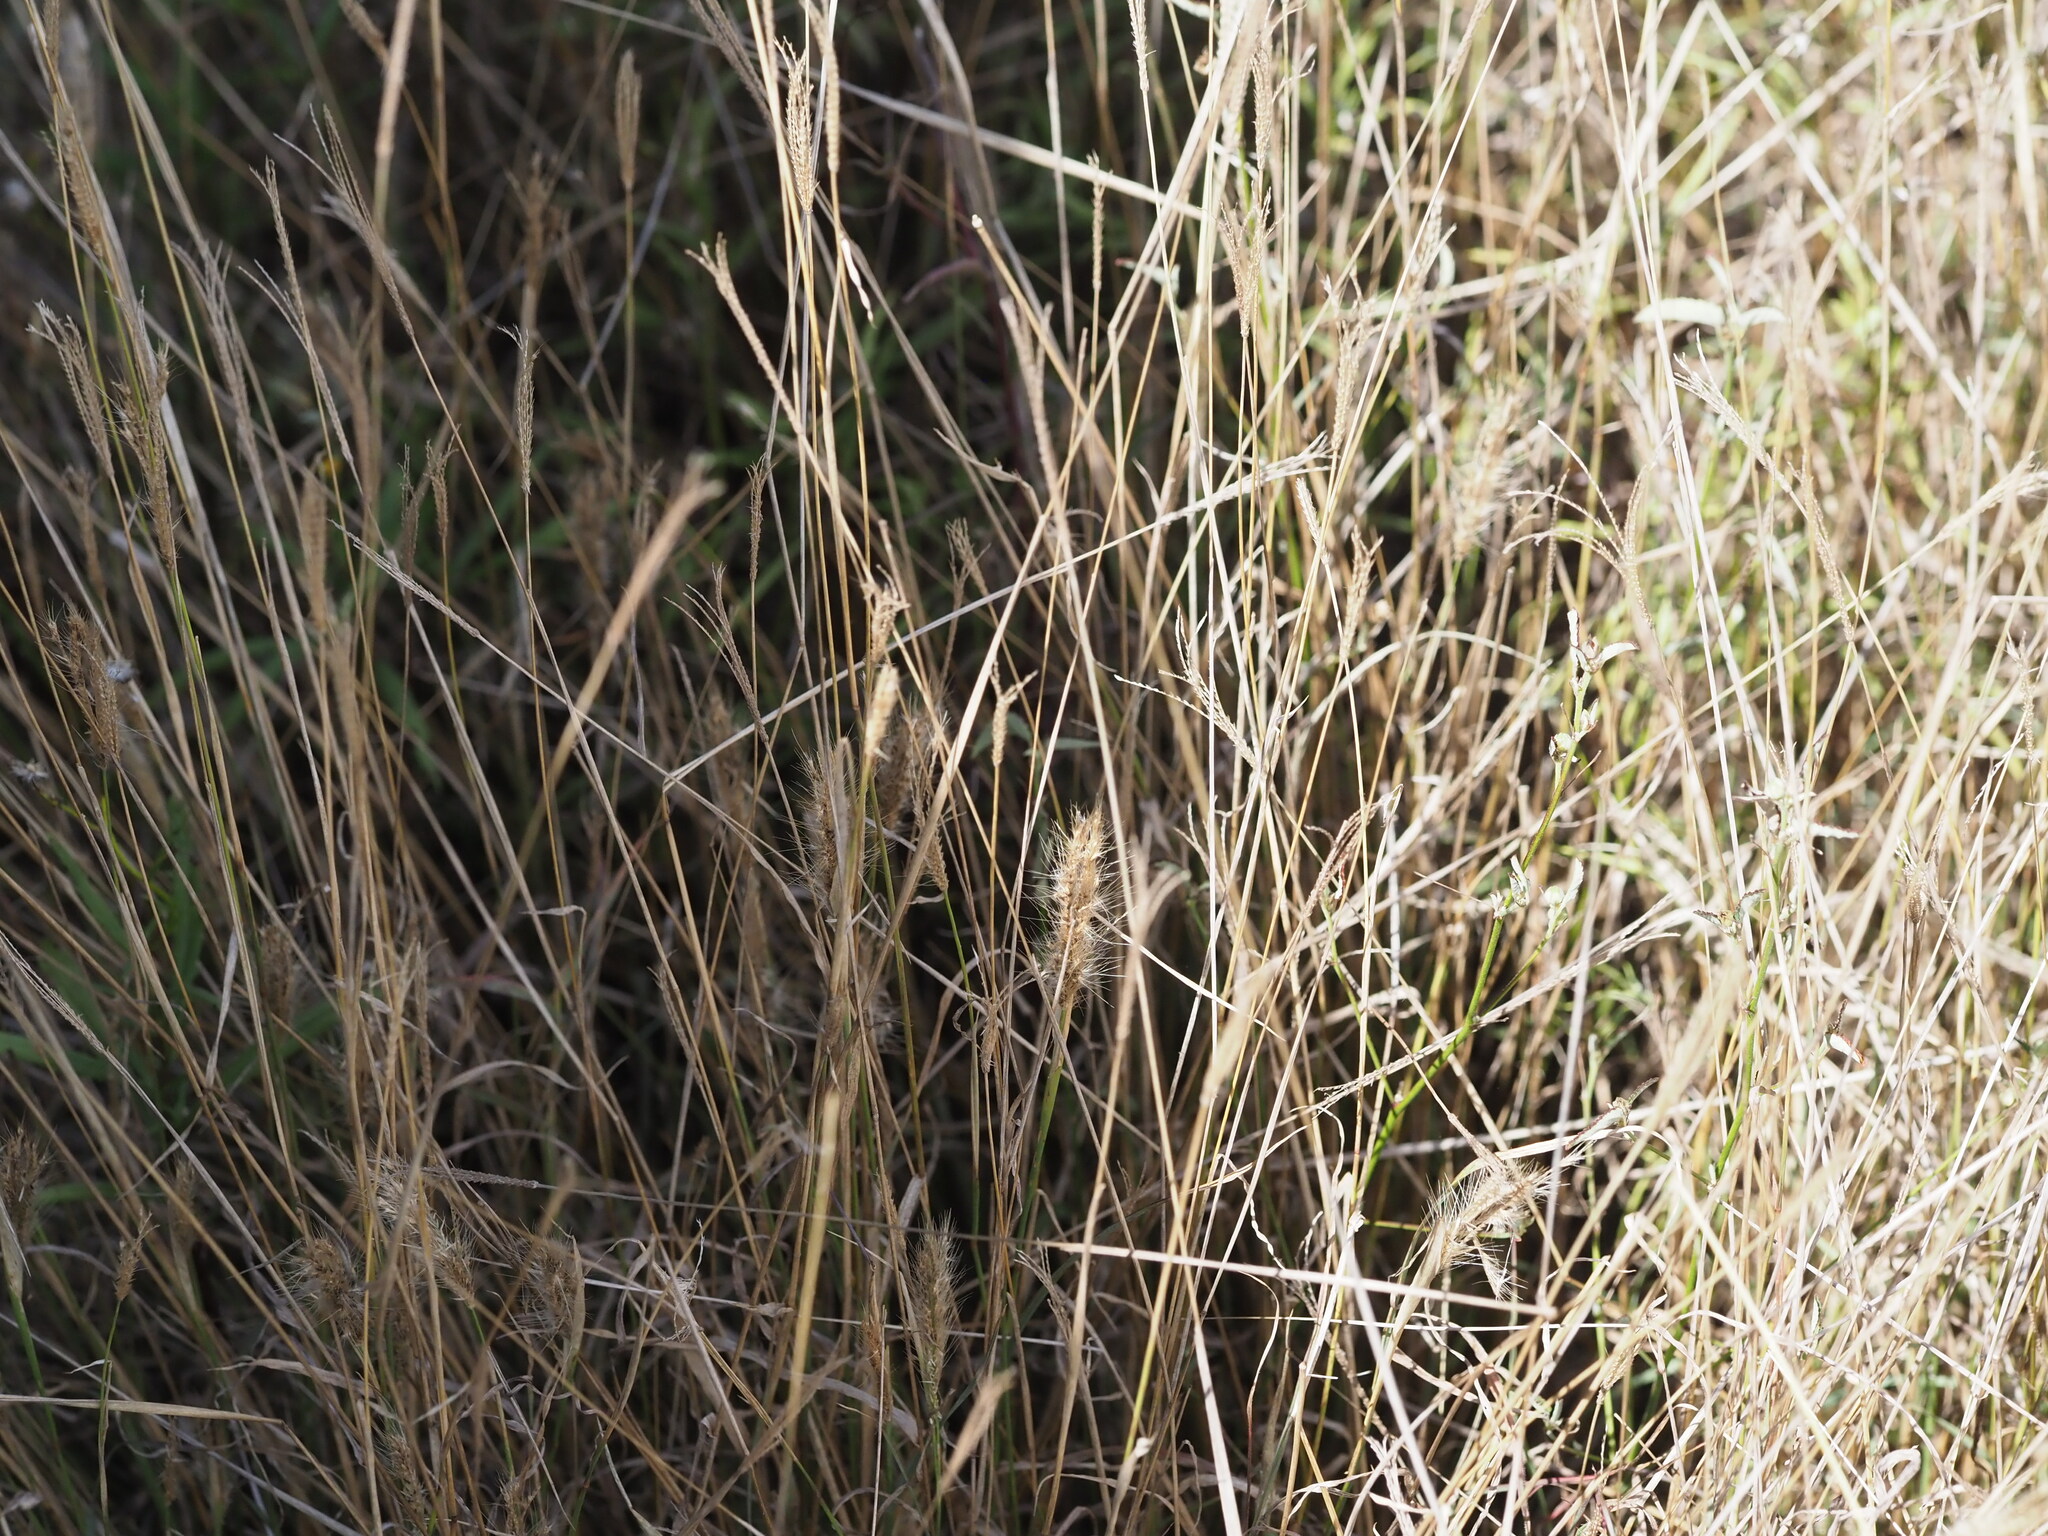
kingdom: Plantae
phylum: Tracheophyta
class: Liliopsida
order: Poales
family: Poaceae
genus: Chloris
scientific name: Chloris virgata
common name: Feathery rhodes-grass
